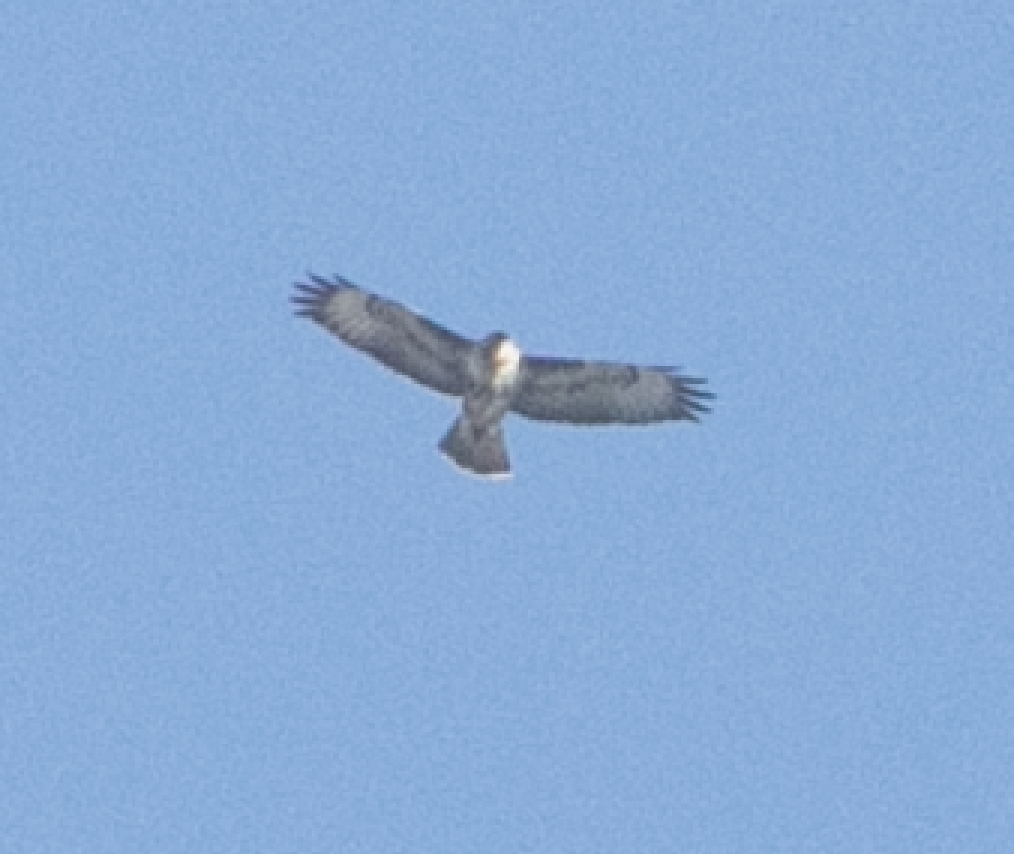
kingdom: Animalia
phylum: Chordata
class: Aves
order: Accipitriformes
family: Accipitridae
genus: Buteo
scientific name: Buteo buteo
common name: Common buzzard
